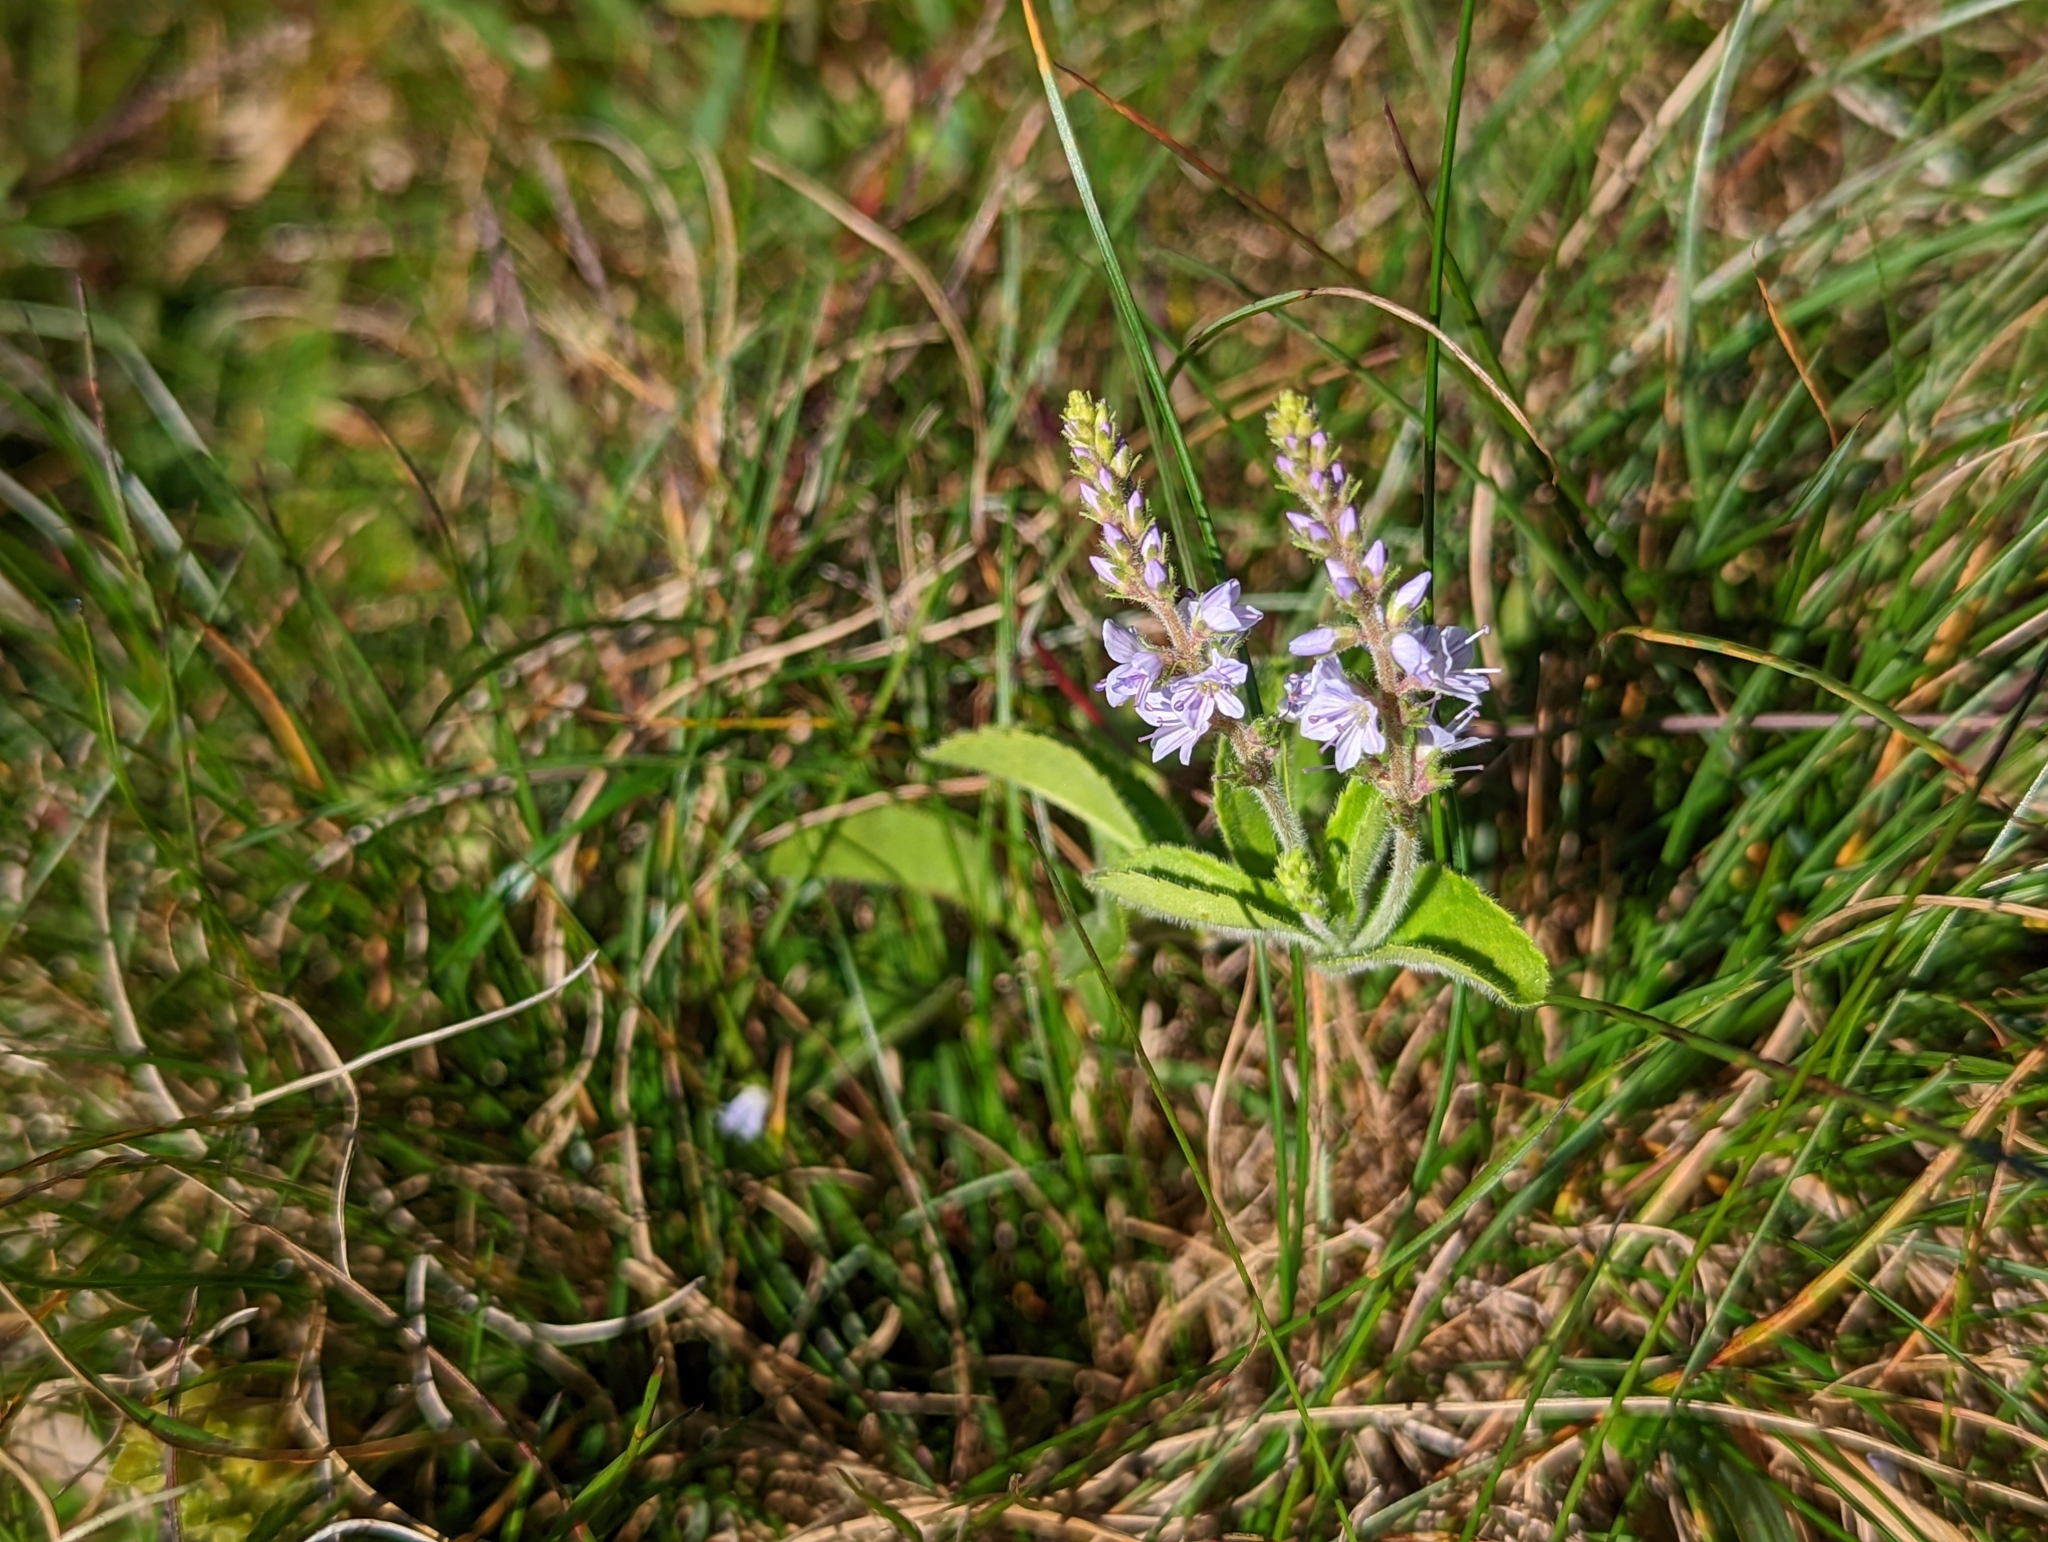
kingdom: Plantae
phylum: Tracheophyta
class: Magnoliopsida
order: Lamiales
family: Plantaginaceae
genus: Veronica
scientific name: Veronica officinalis
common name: Common speedwell
